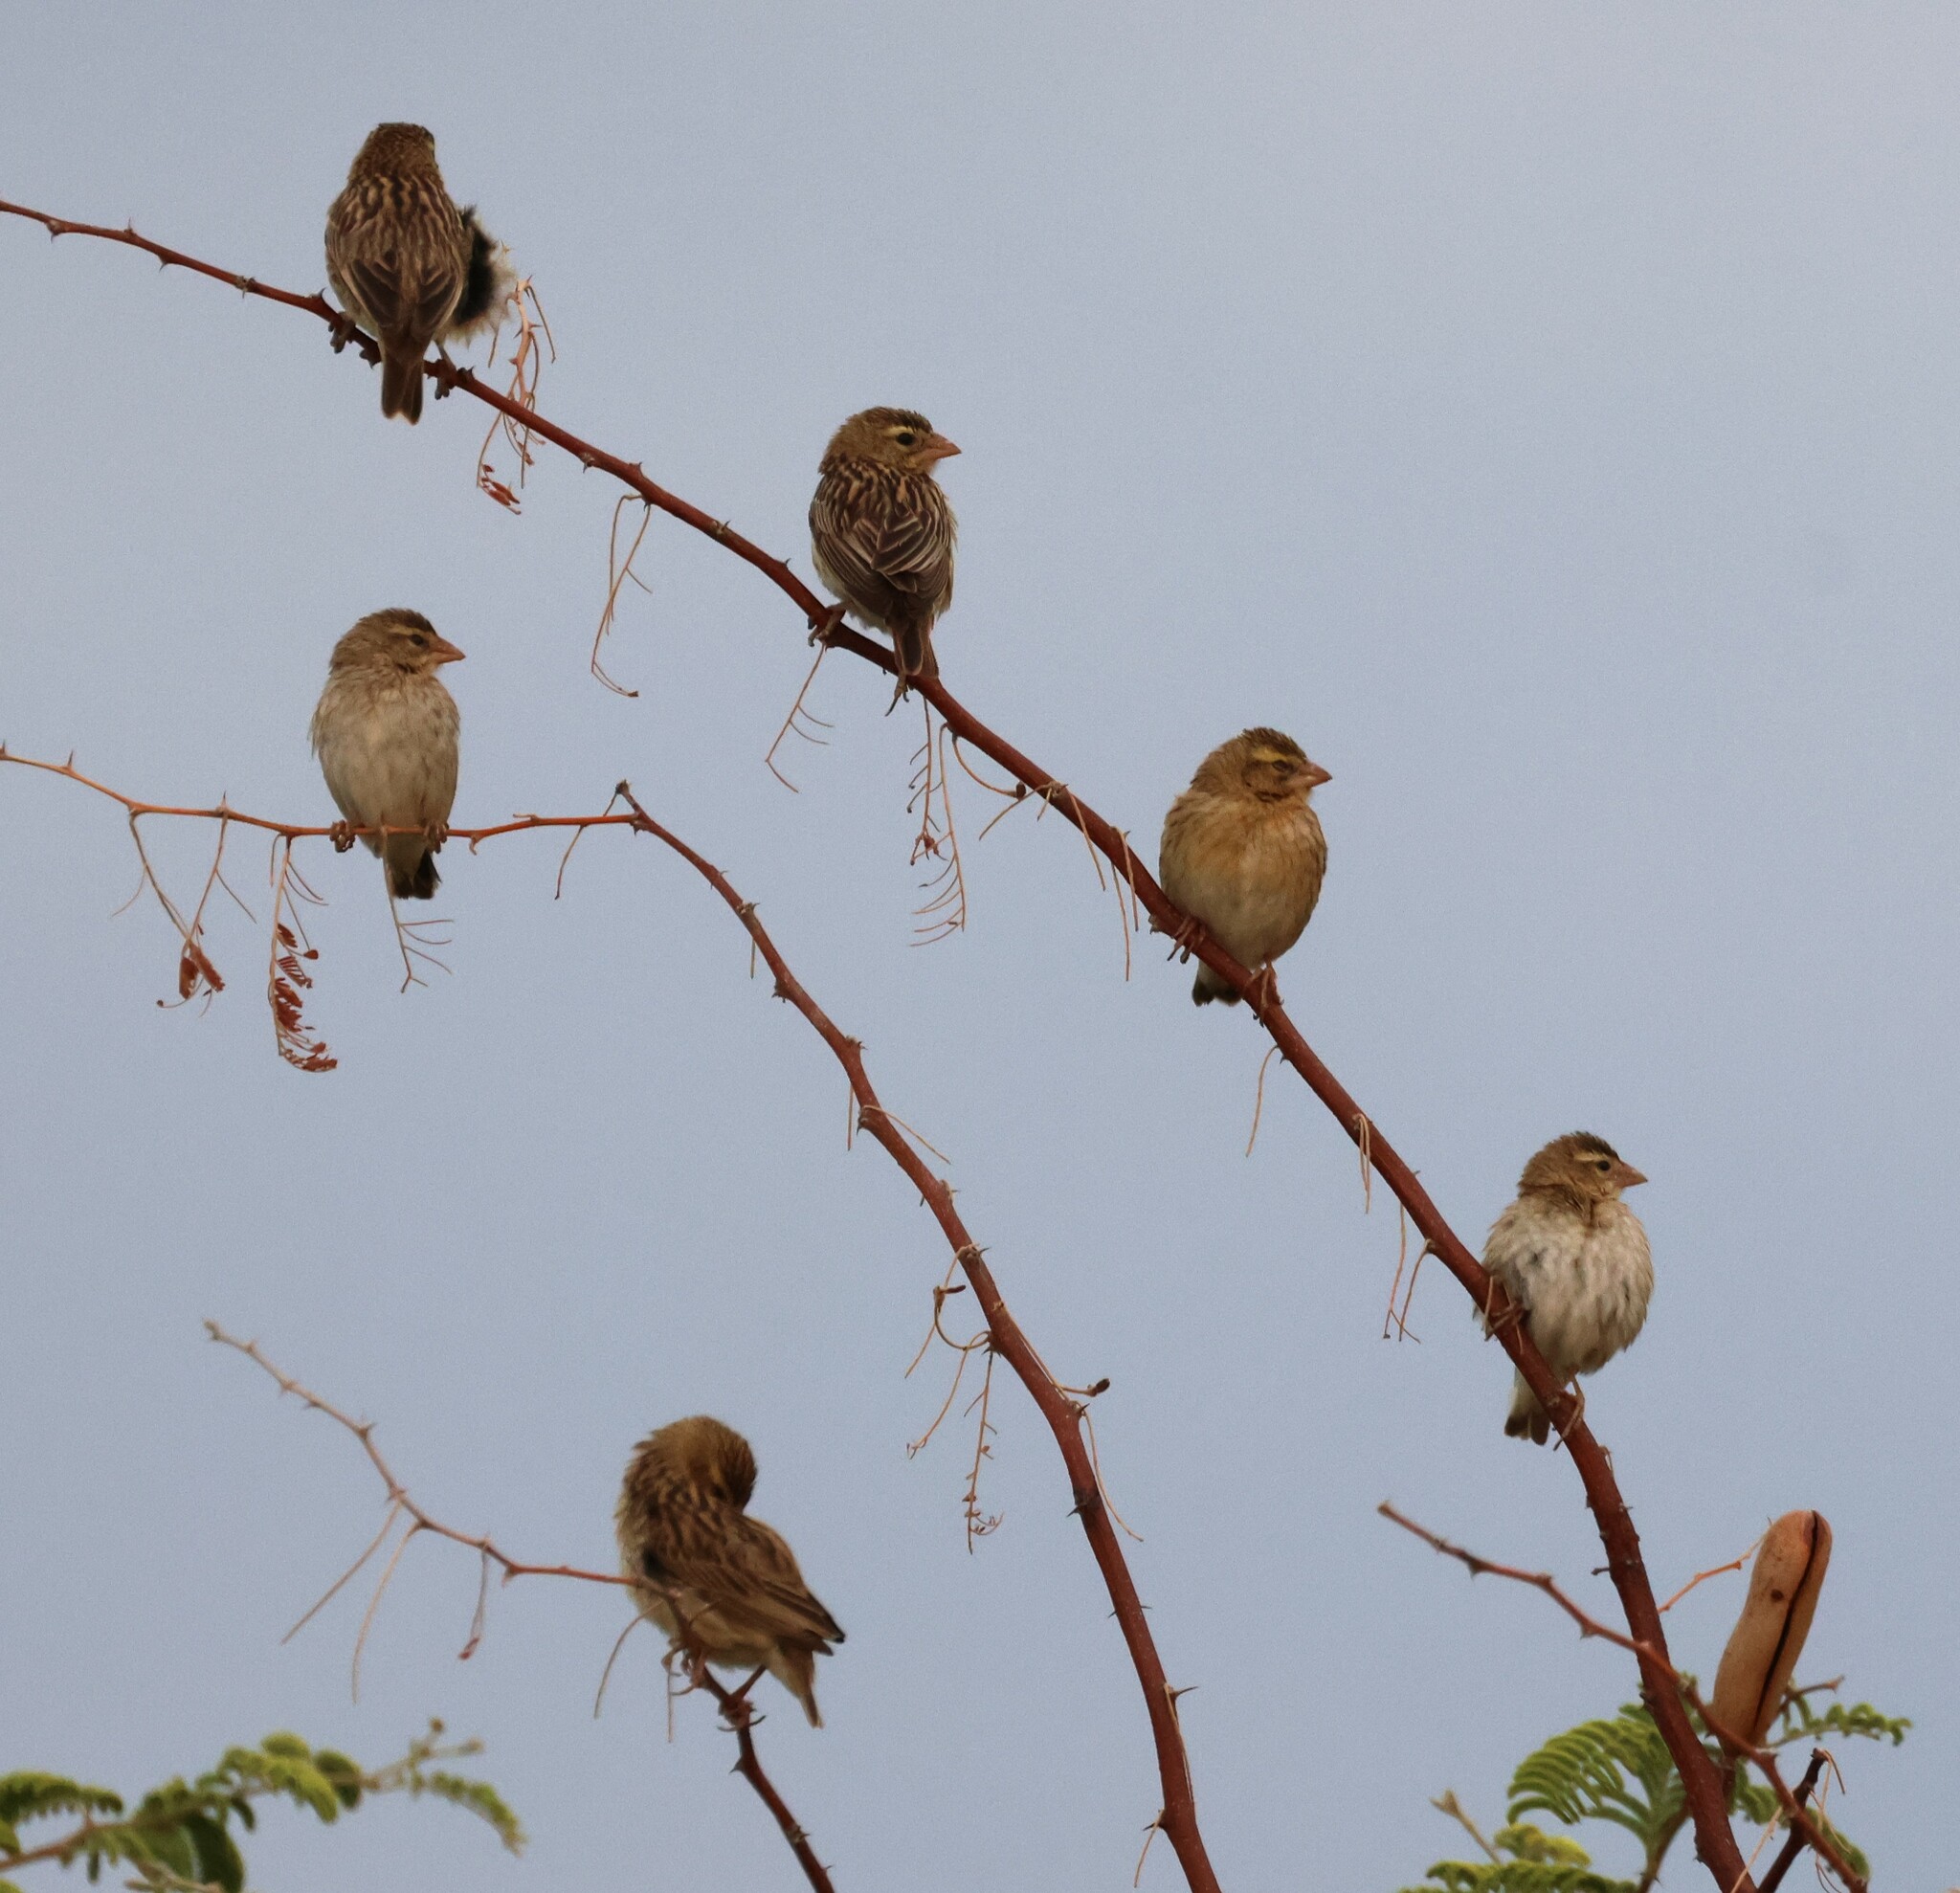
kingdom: Animalia
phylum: Chordata
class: Aves
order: Passeriformes
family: Ploceidae
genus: Euplectes
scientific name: Euplectes afer
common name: Yellow-crowned bishop
